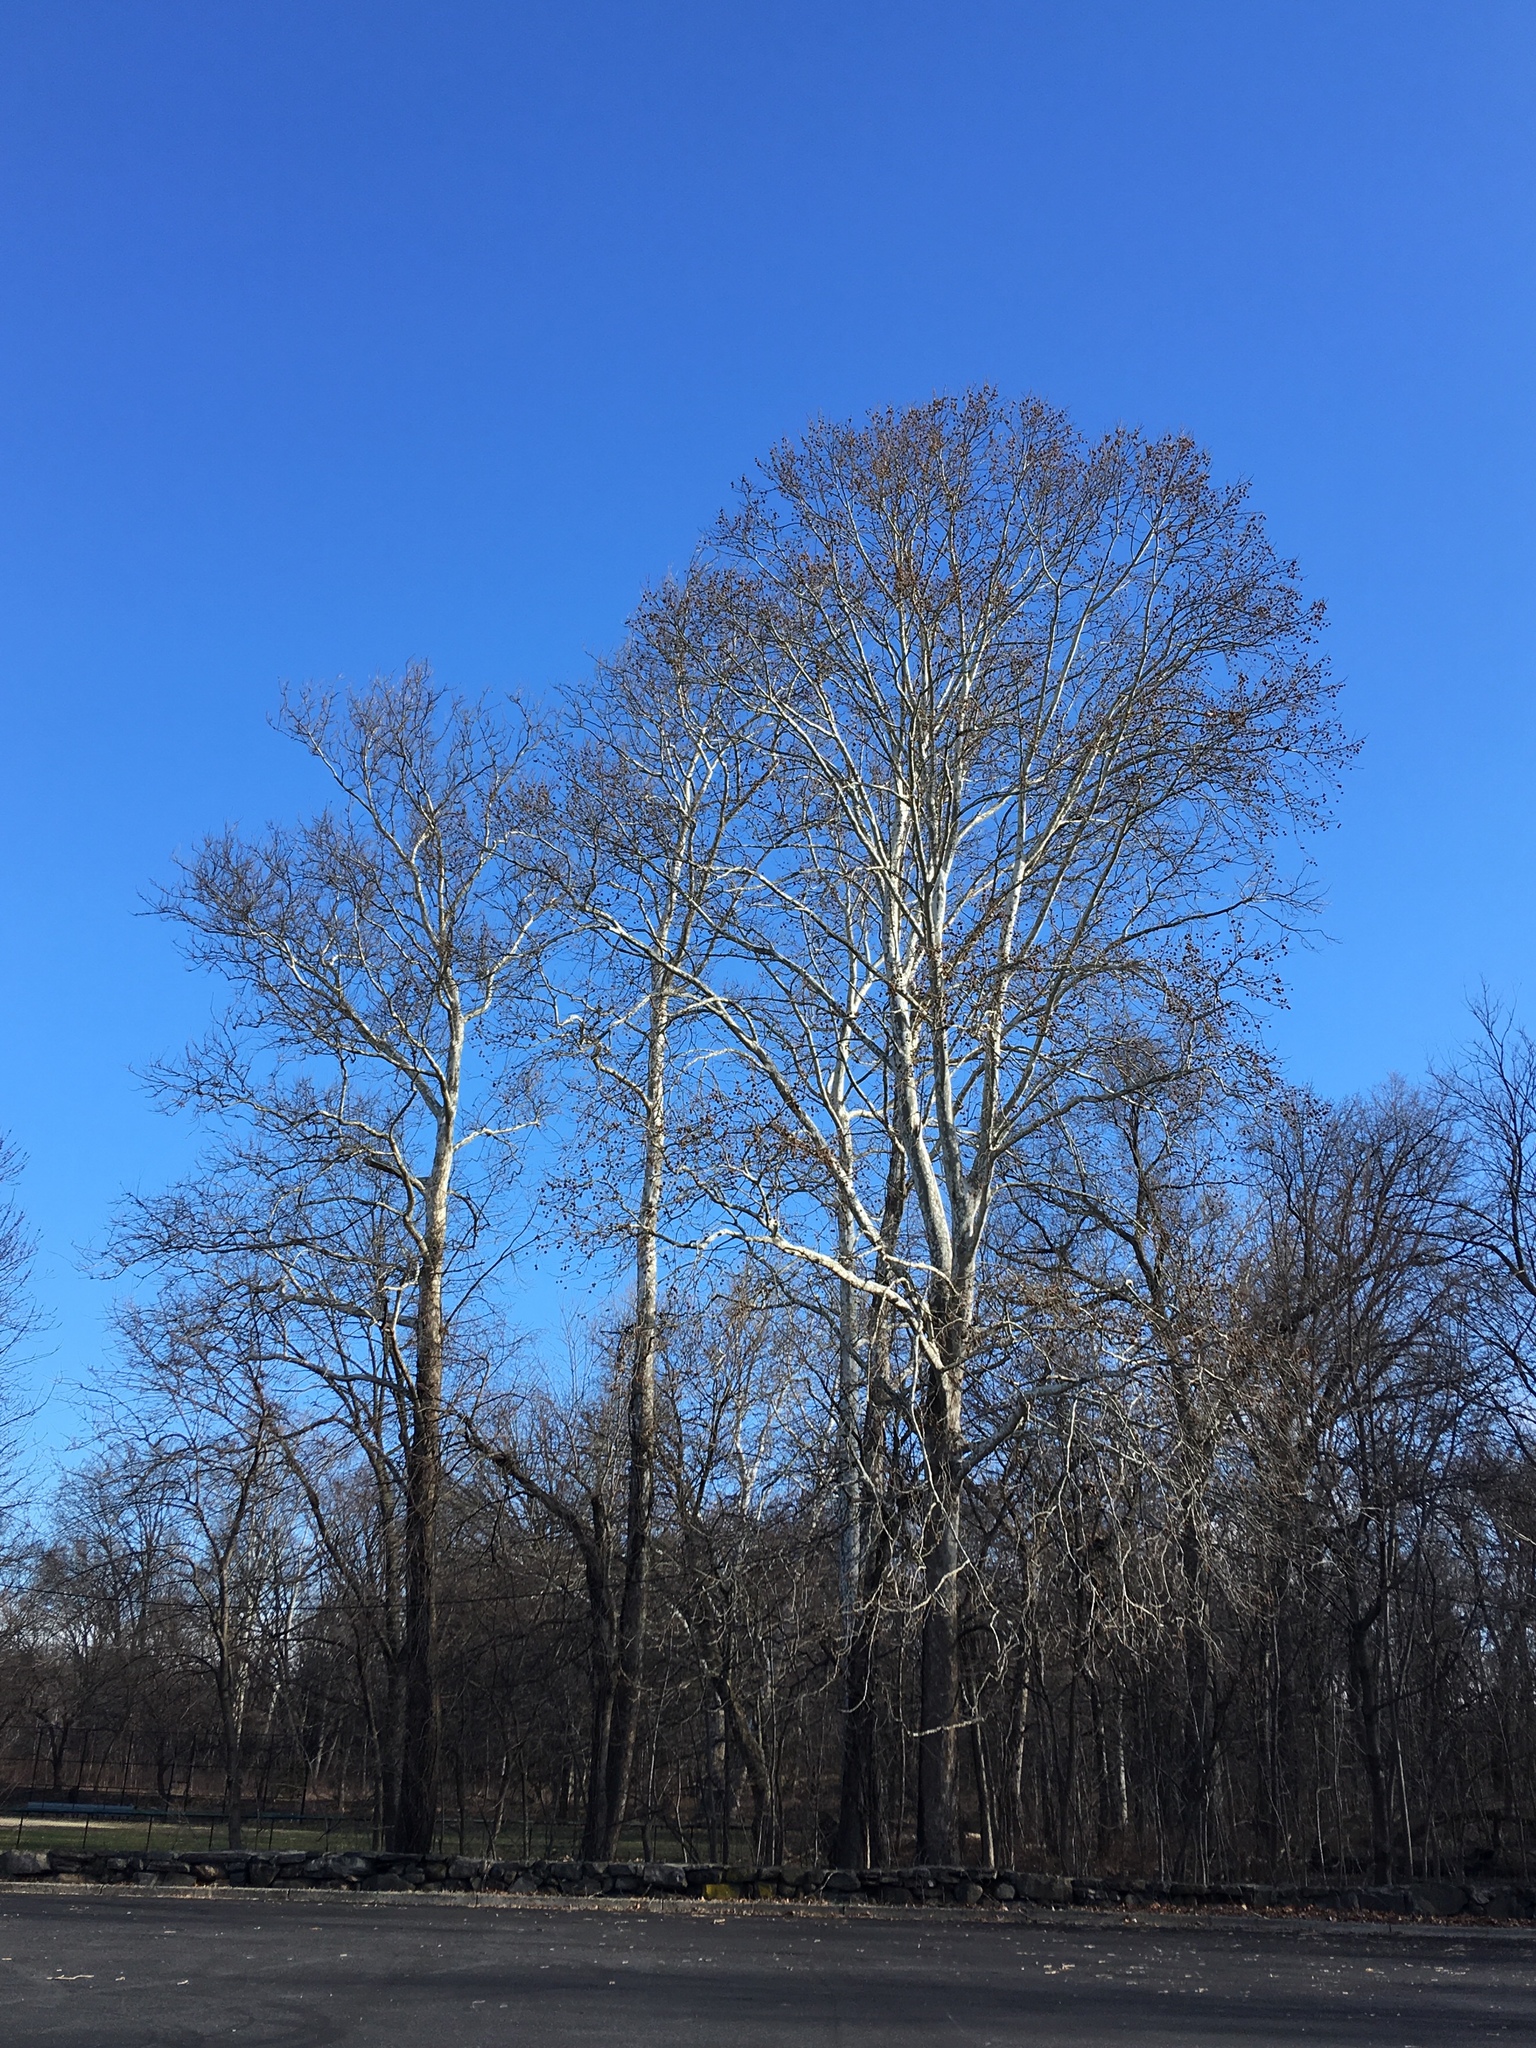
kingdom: Plantae
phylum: Tracheophyta
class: Magnoliopsida
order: Proteales
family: Platanaceae
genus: Platanus
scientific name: Platanus occidentalis
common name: American sycamore
